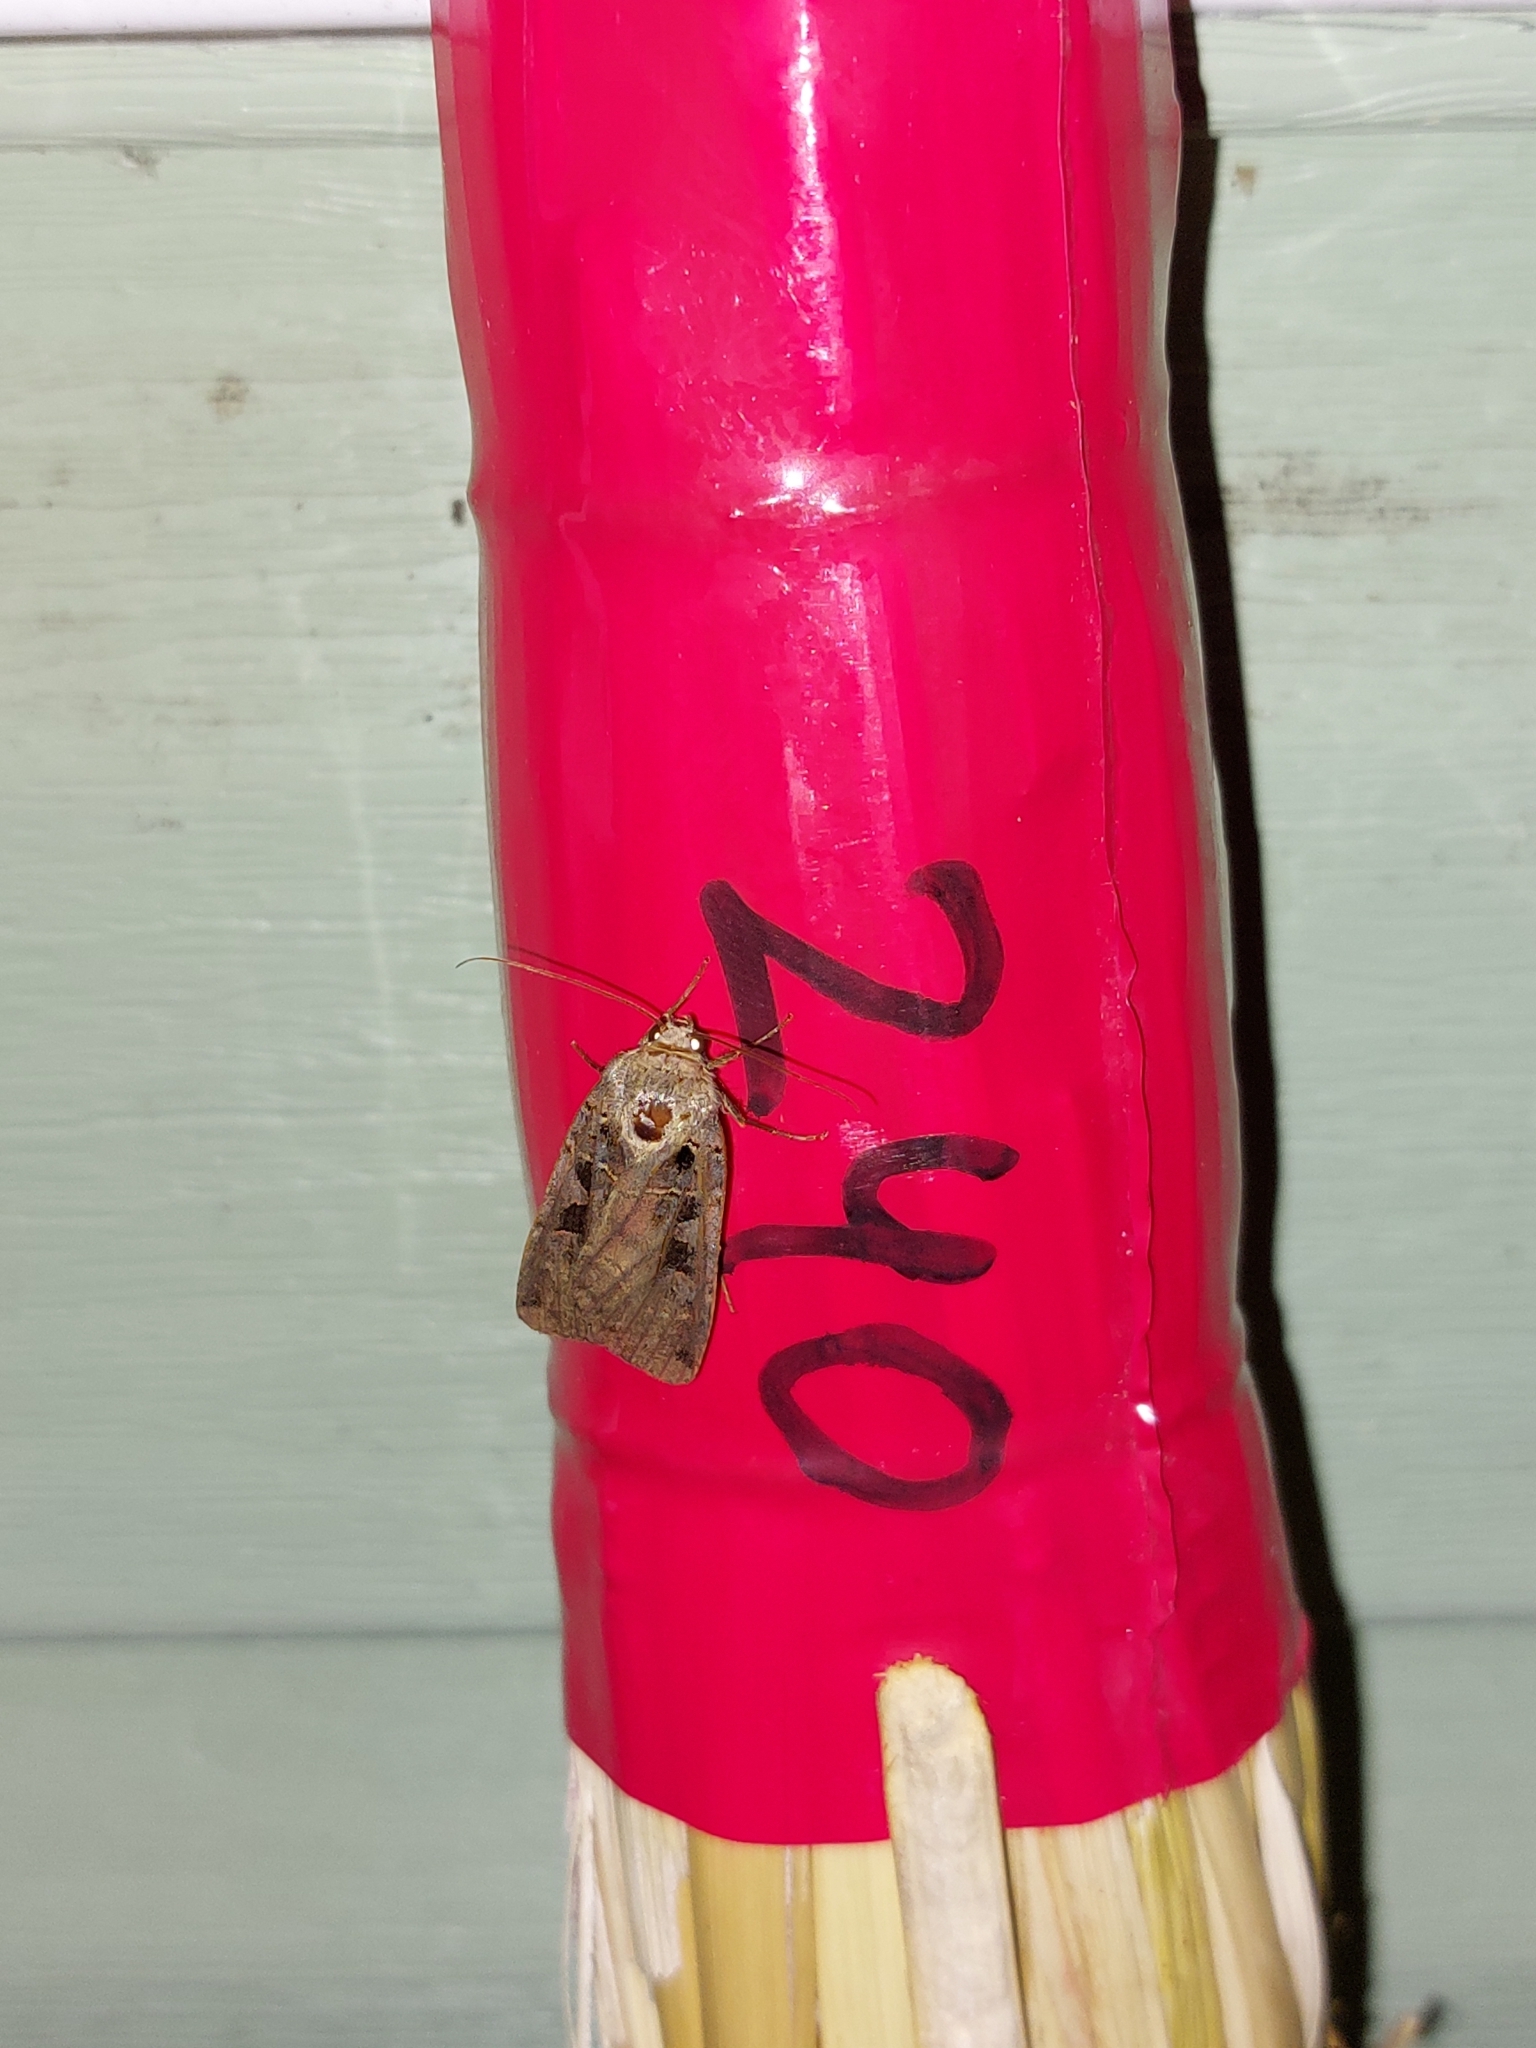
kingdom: Animalia
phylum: Arthropoda
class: Insecta
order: Lepidoptera
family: Noctuidae
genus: Xestia
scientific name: Xestia triangulum
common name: Double square-spot
